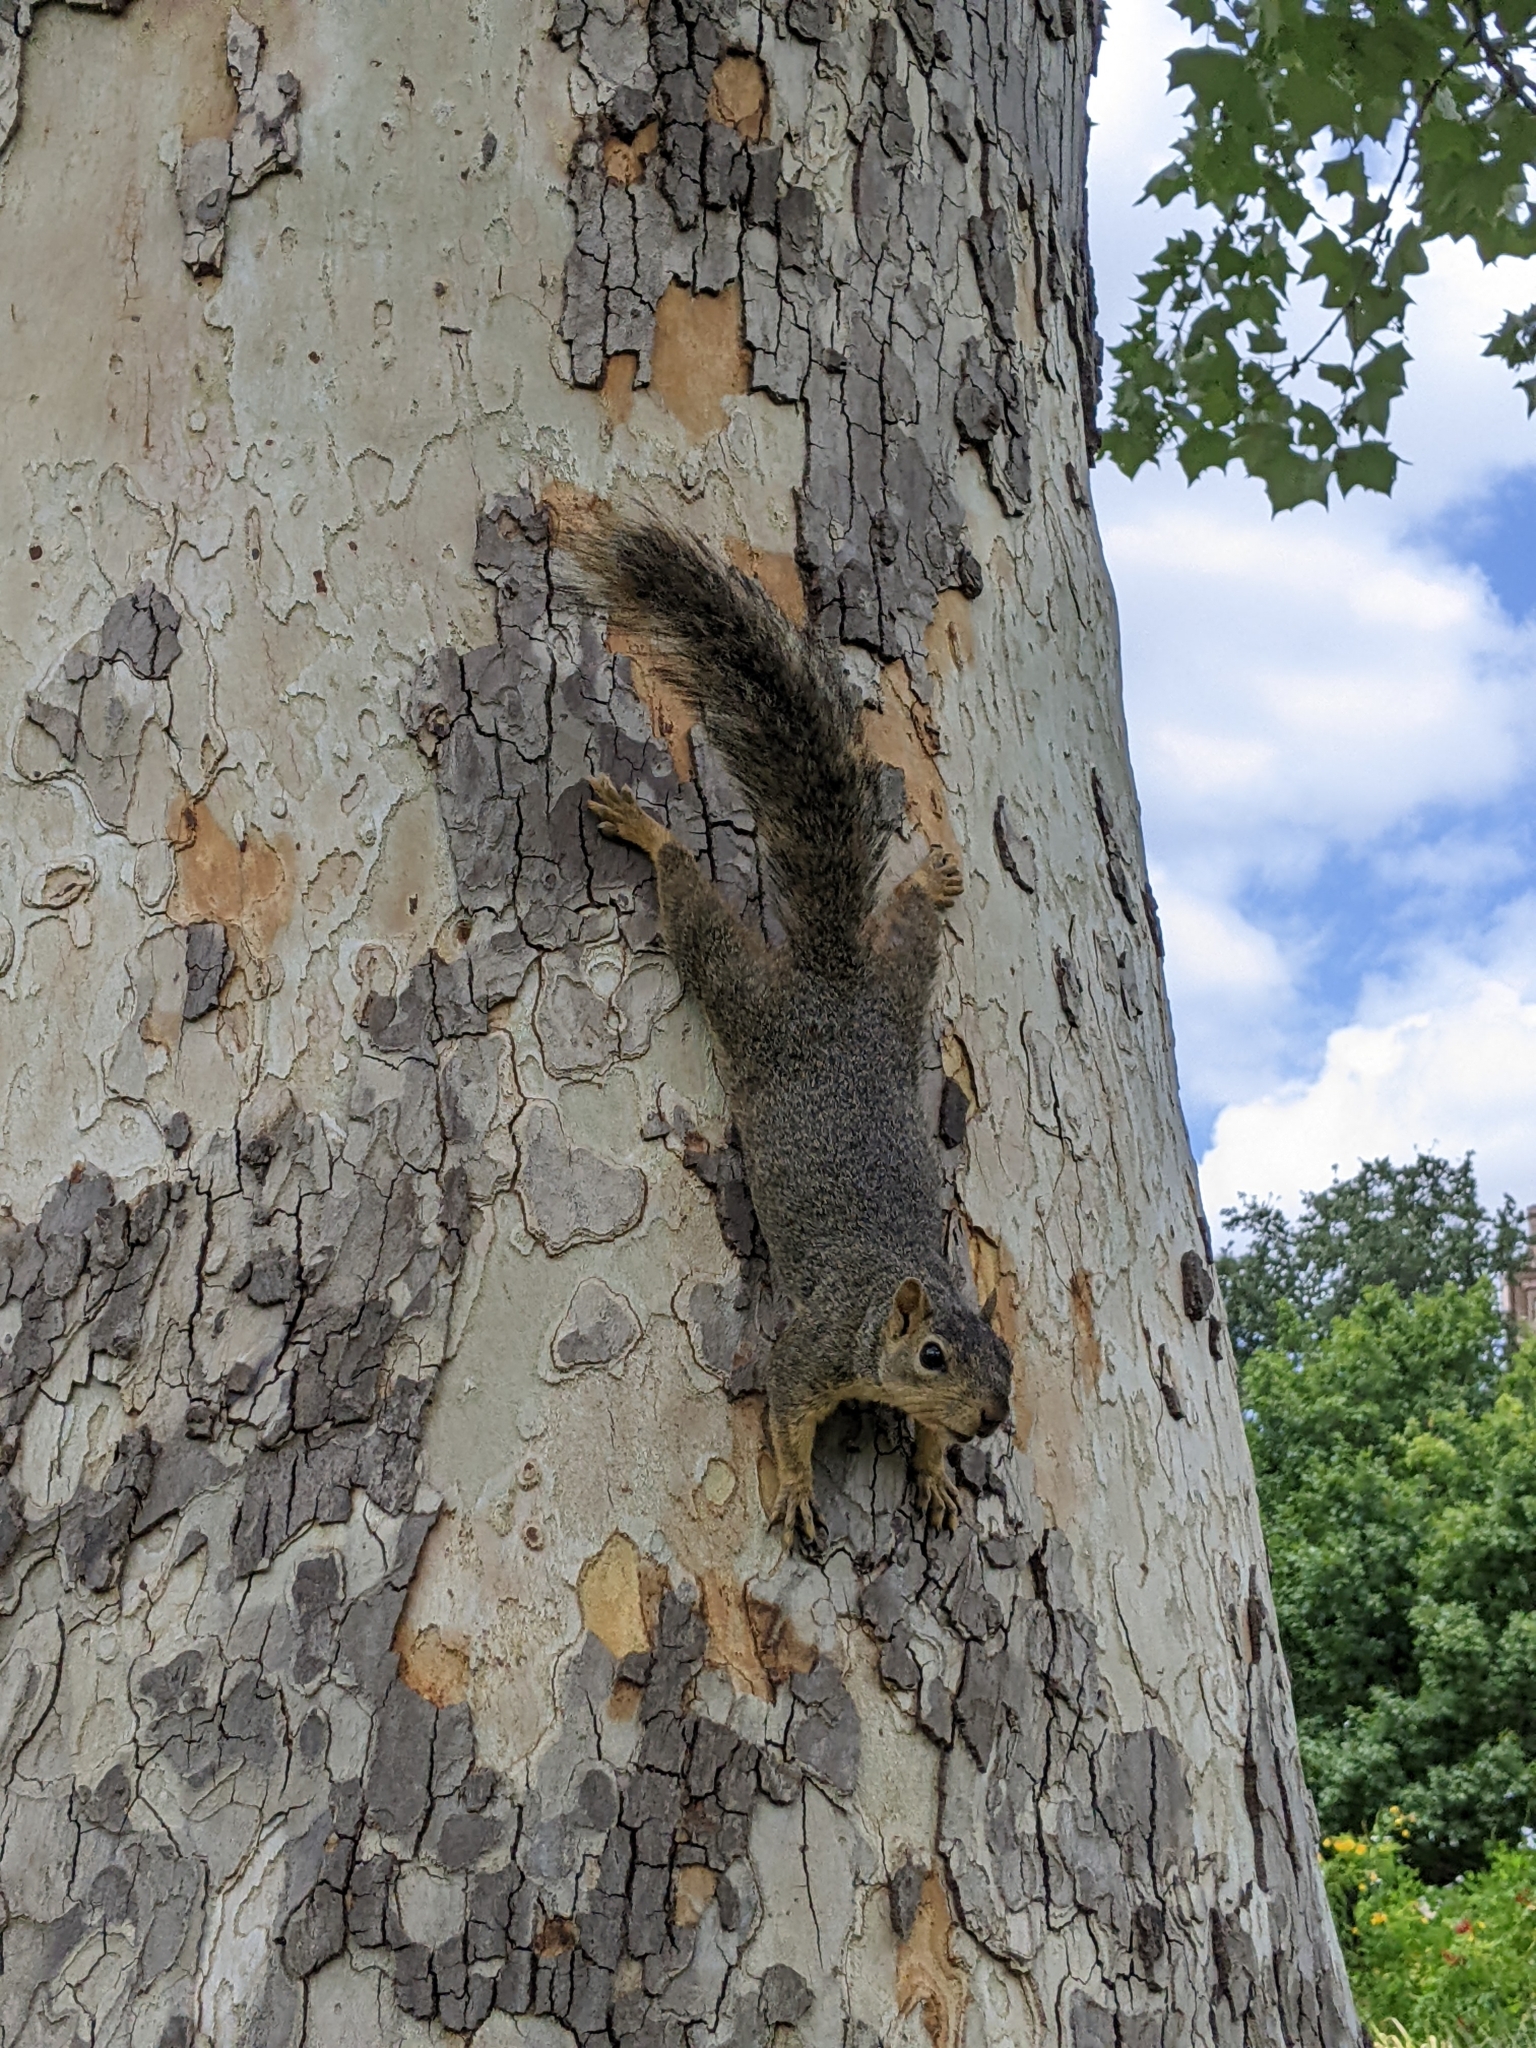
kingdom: Animalia
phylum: Chordata
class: Mammalia
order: Rodentia
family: Sciuridae
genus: Sciurus
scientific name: Sciurus niger
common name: Fox squirrel
